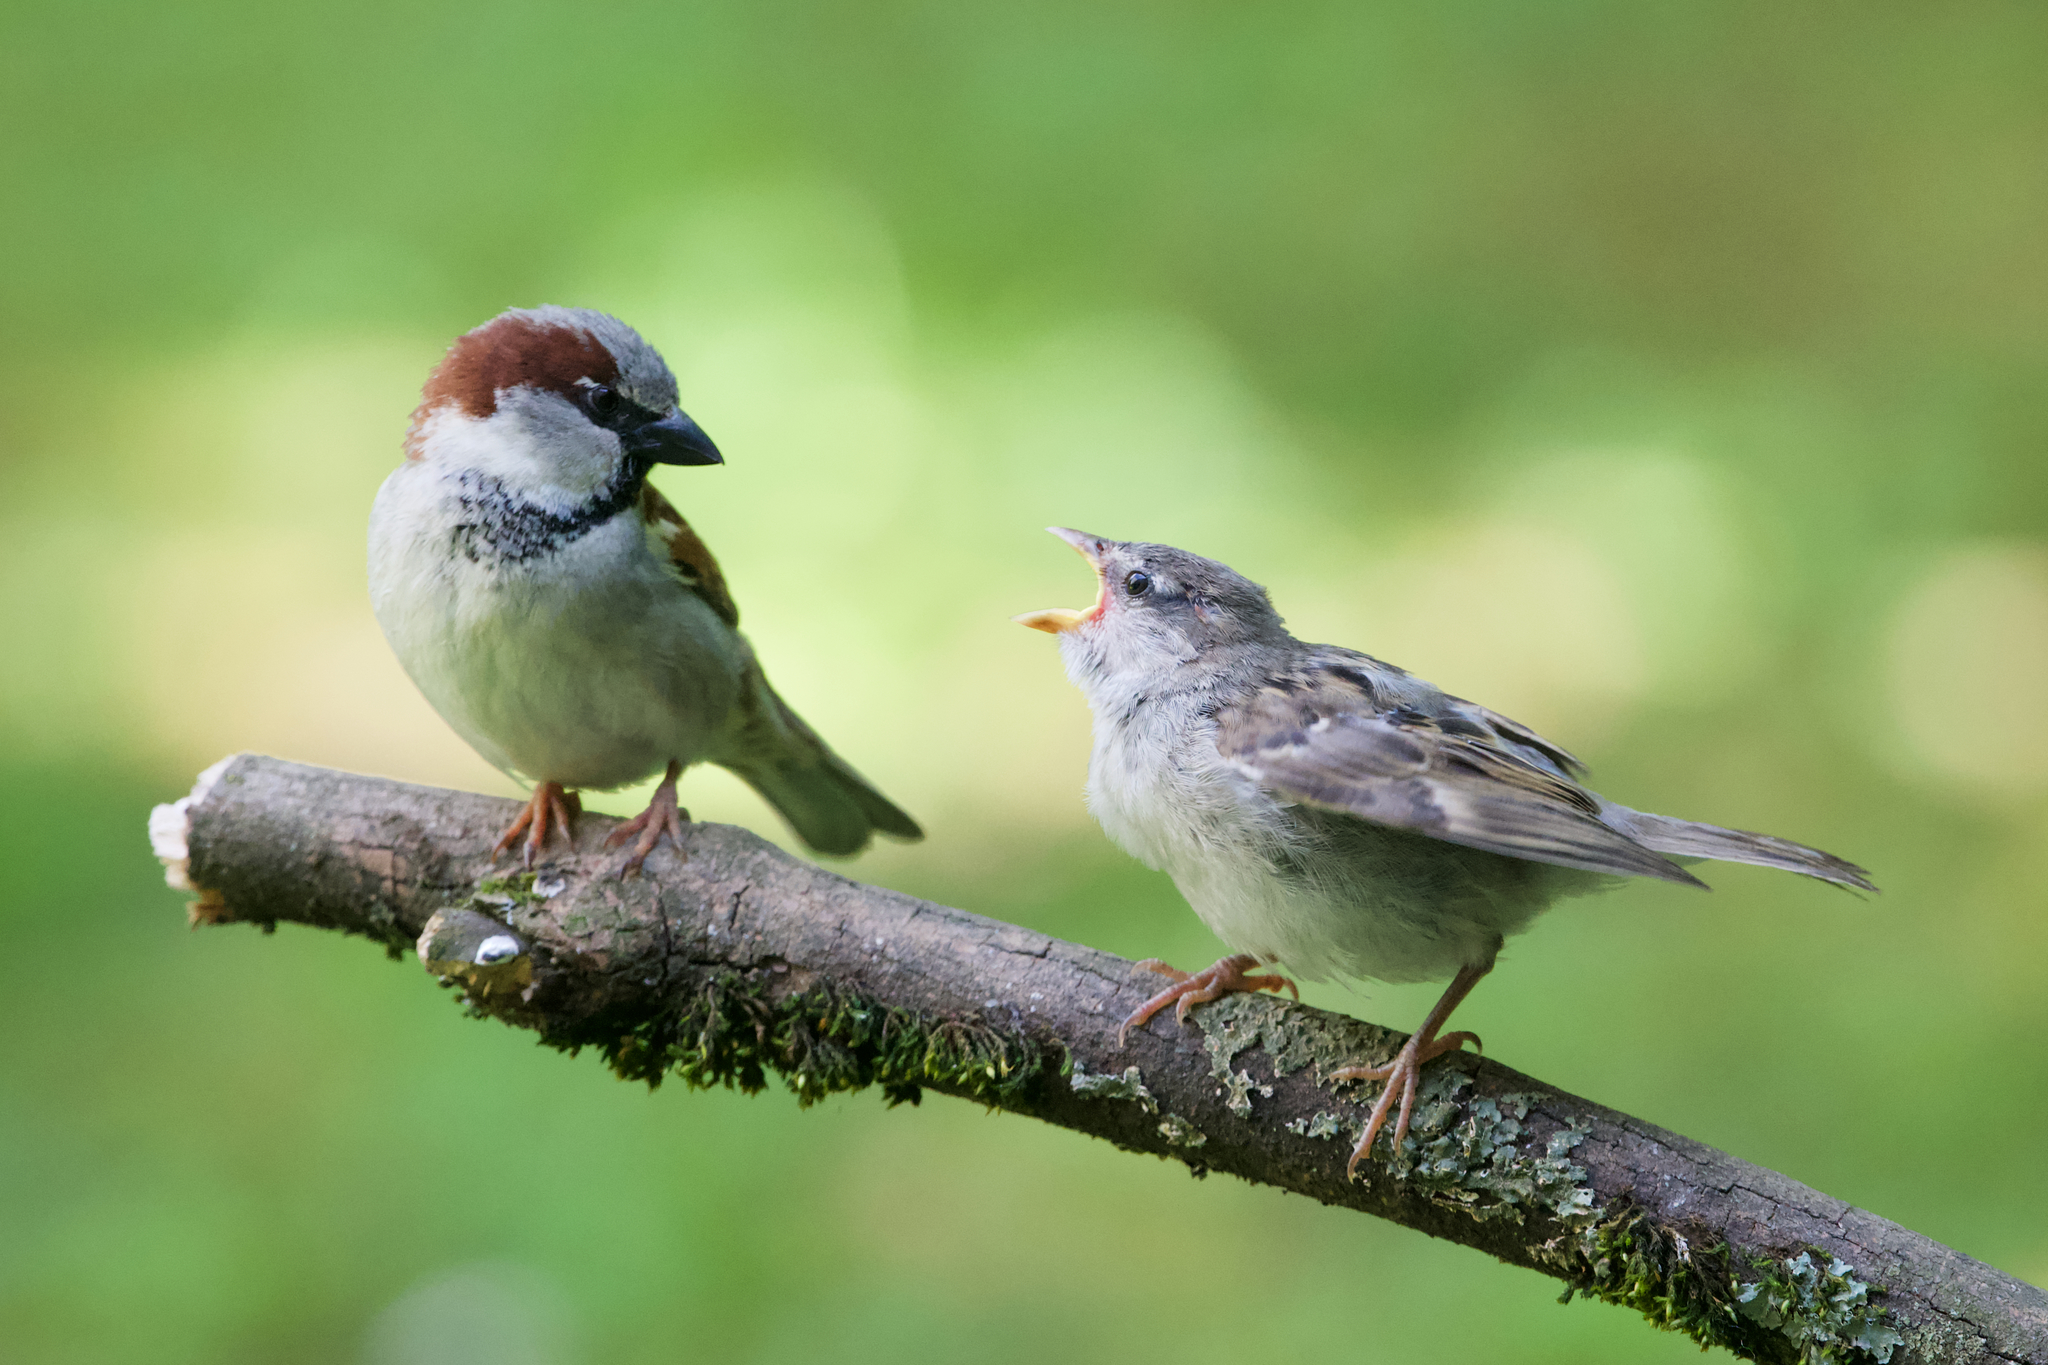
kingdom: Animalia
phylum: Chordata
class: Aves
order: Passeriformes
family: Passeridae
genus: Passer
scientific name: Passer domesticus
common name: House sparrow
